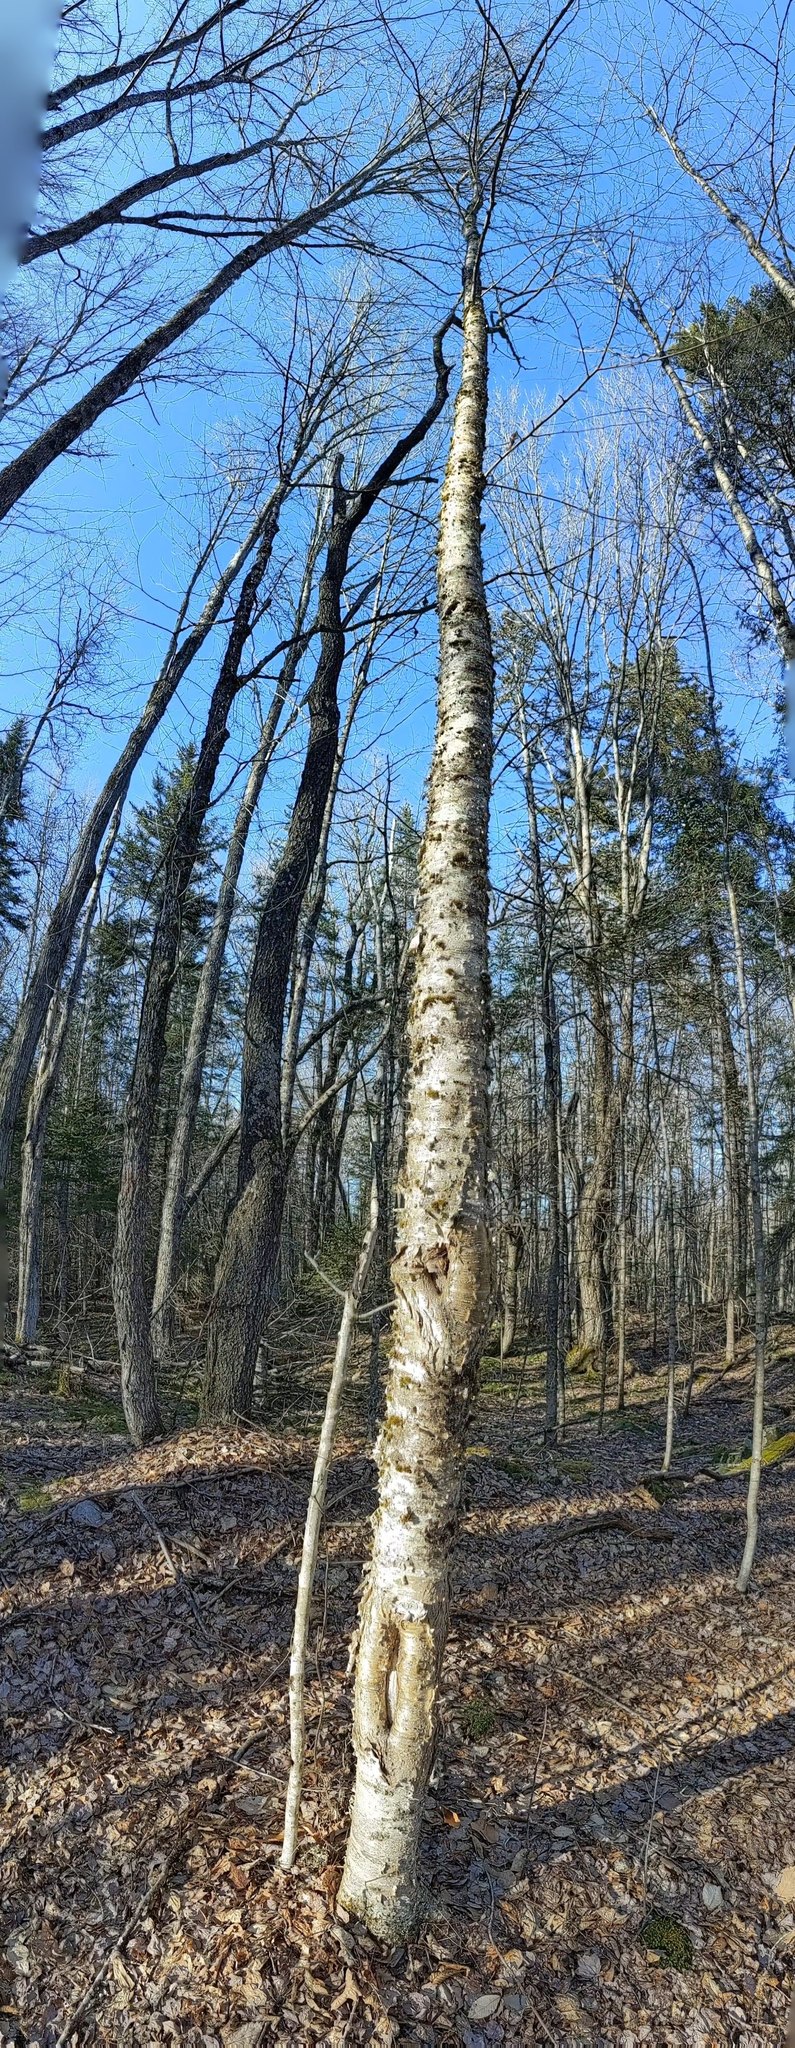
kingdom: Plantae
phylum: Tracheophyta
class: Magnoliopsida
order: Fagales
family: Betulaceae
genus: Betula
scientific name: Betula alleghaniensis
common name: Yellow birch
